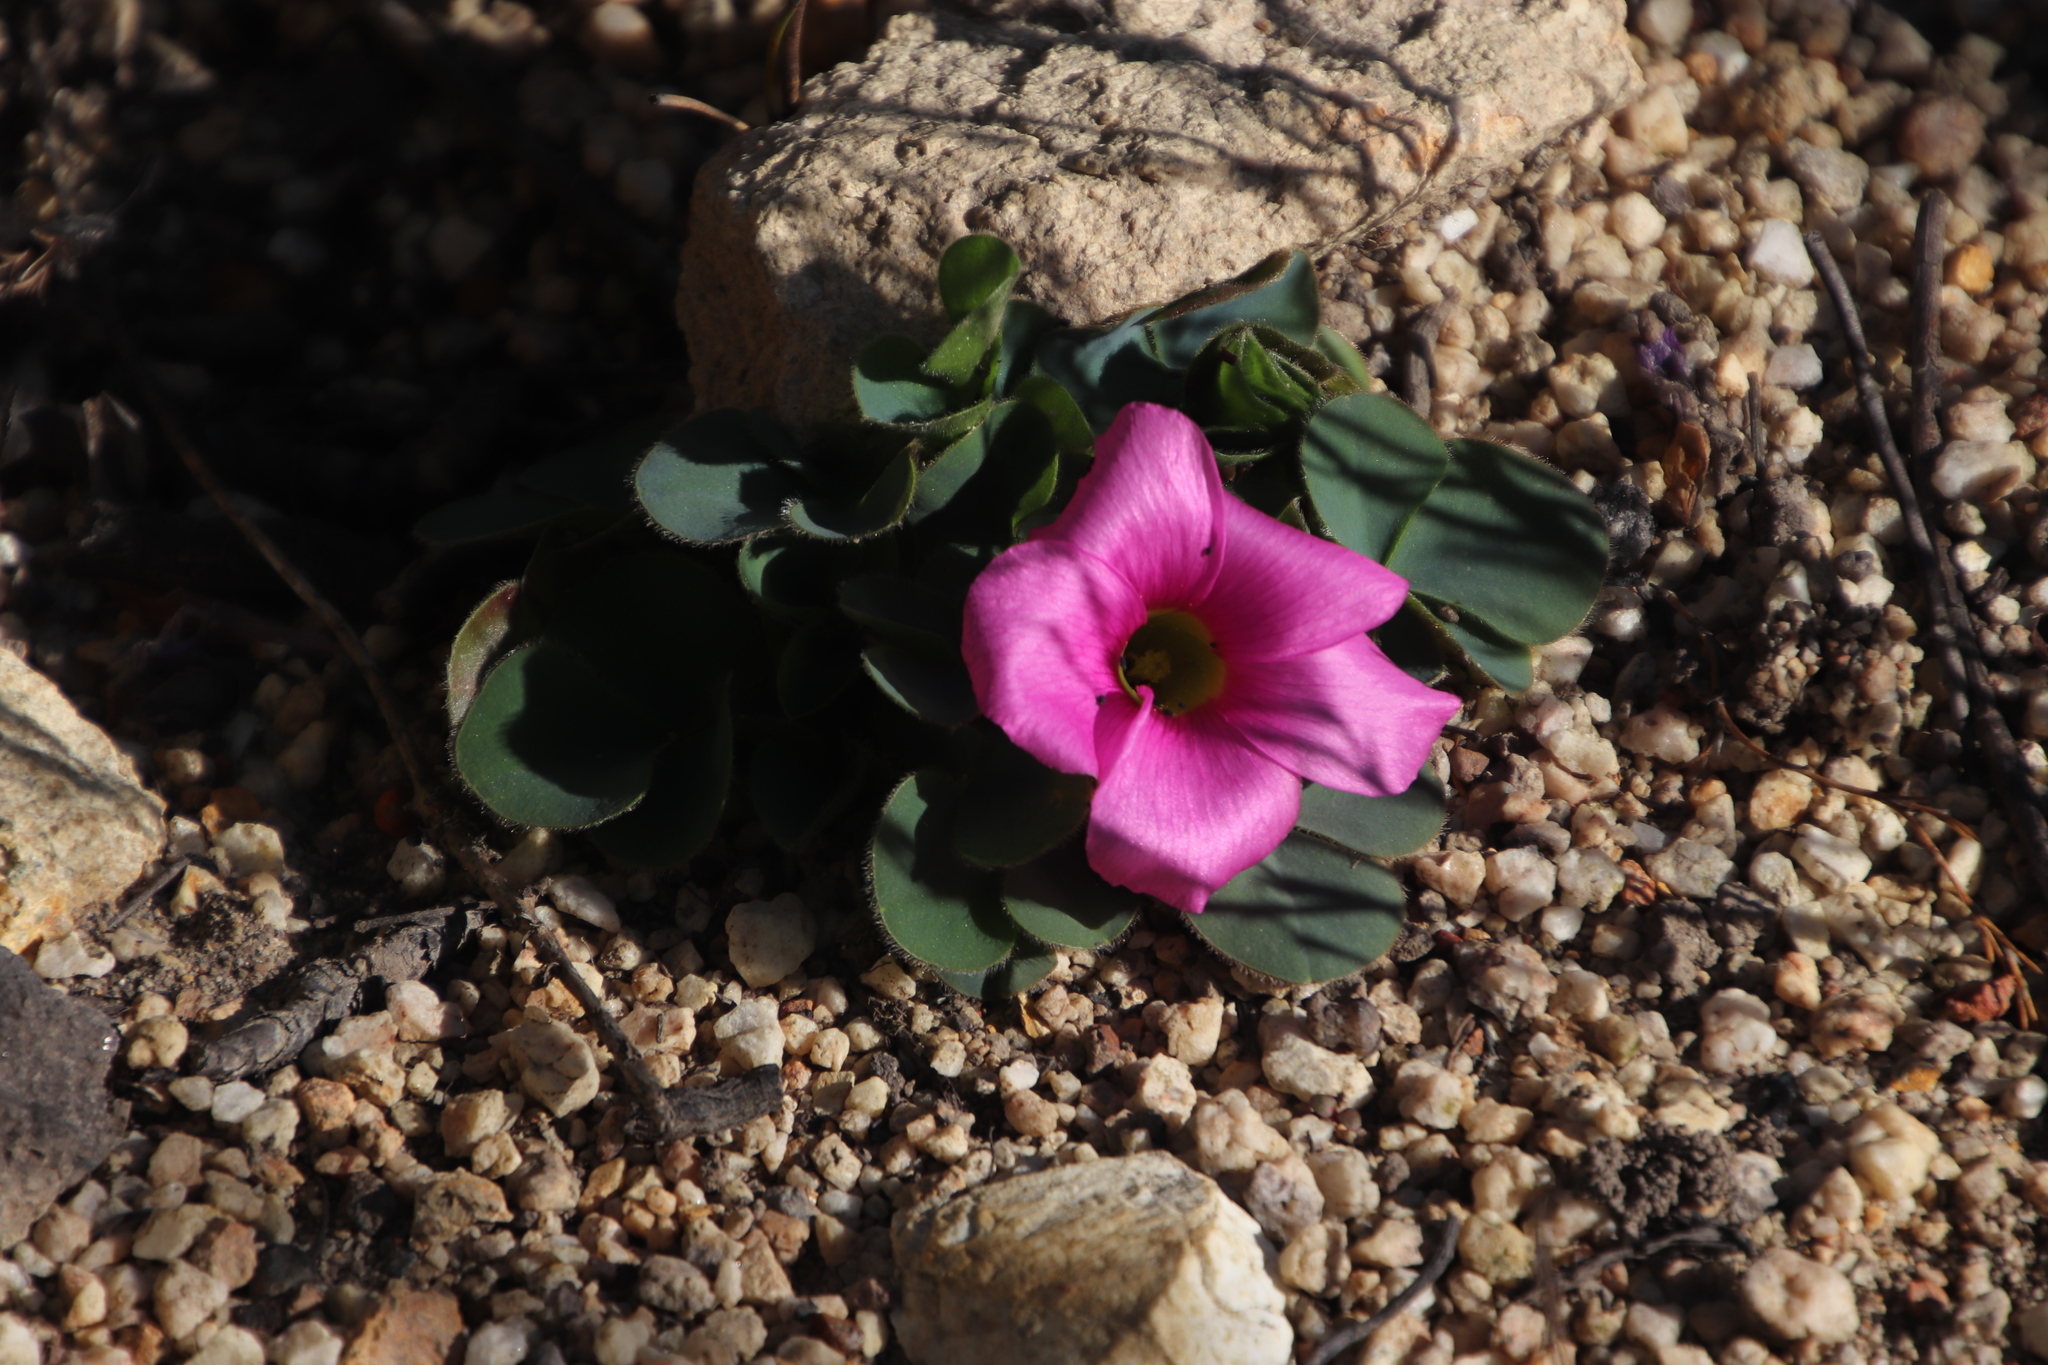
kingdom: Plantae
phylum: Tracheophyta
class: Magnoliopsida
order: Oxalidales
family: Oxalidaceae
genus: Oxalis
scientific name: Oxalis purpurea
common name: Purple woodsorrel
